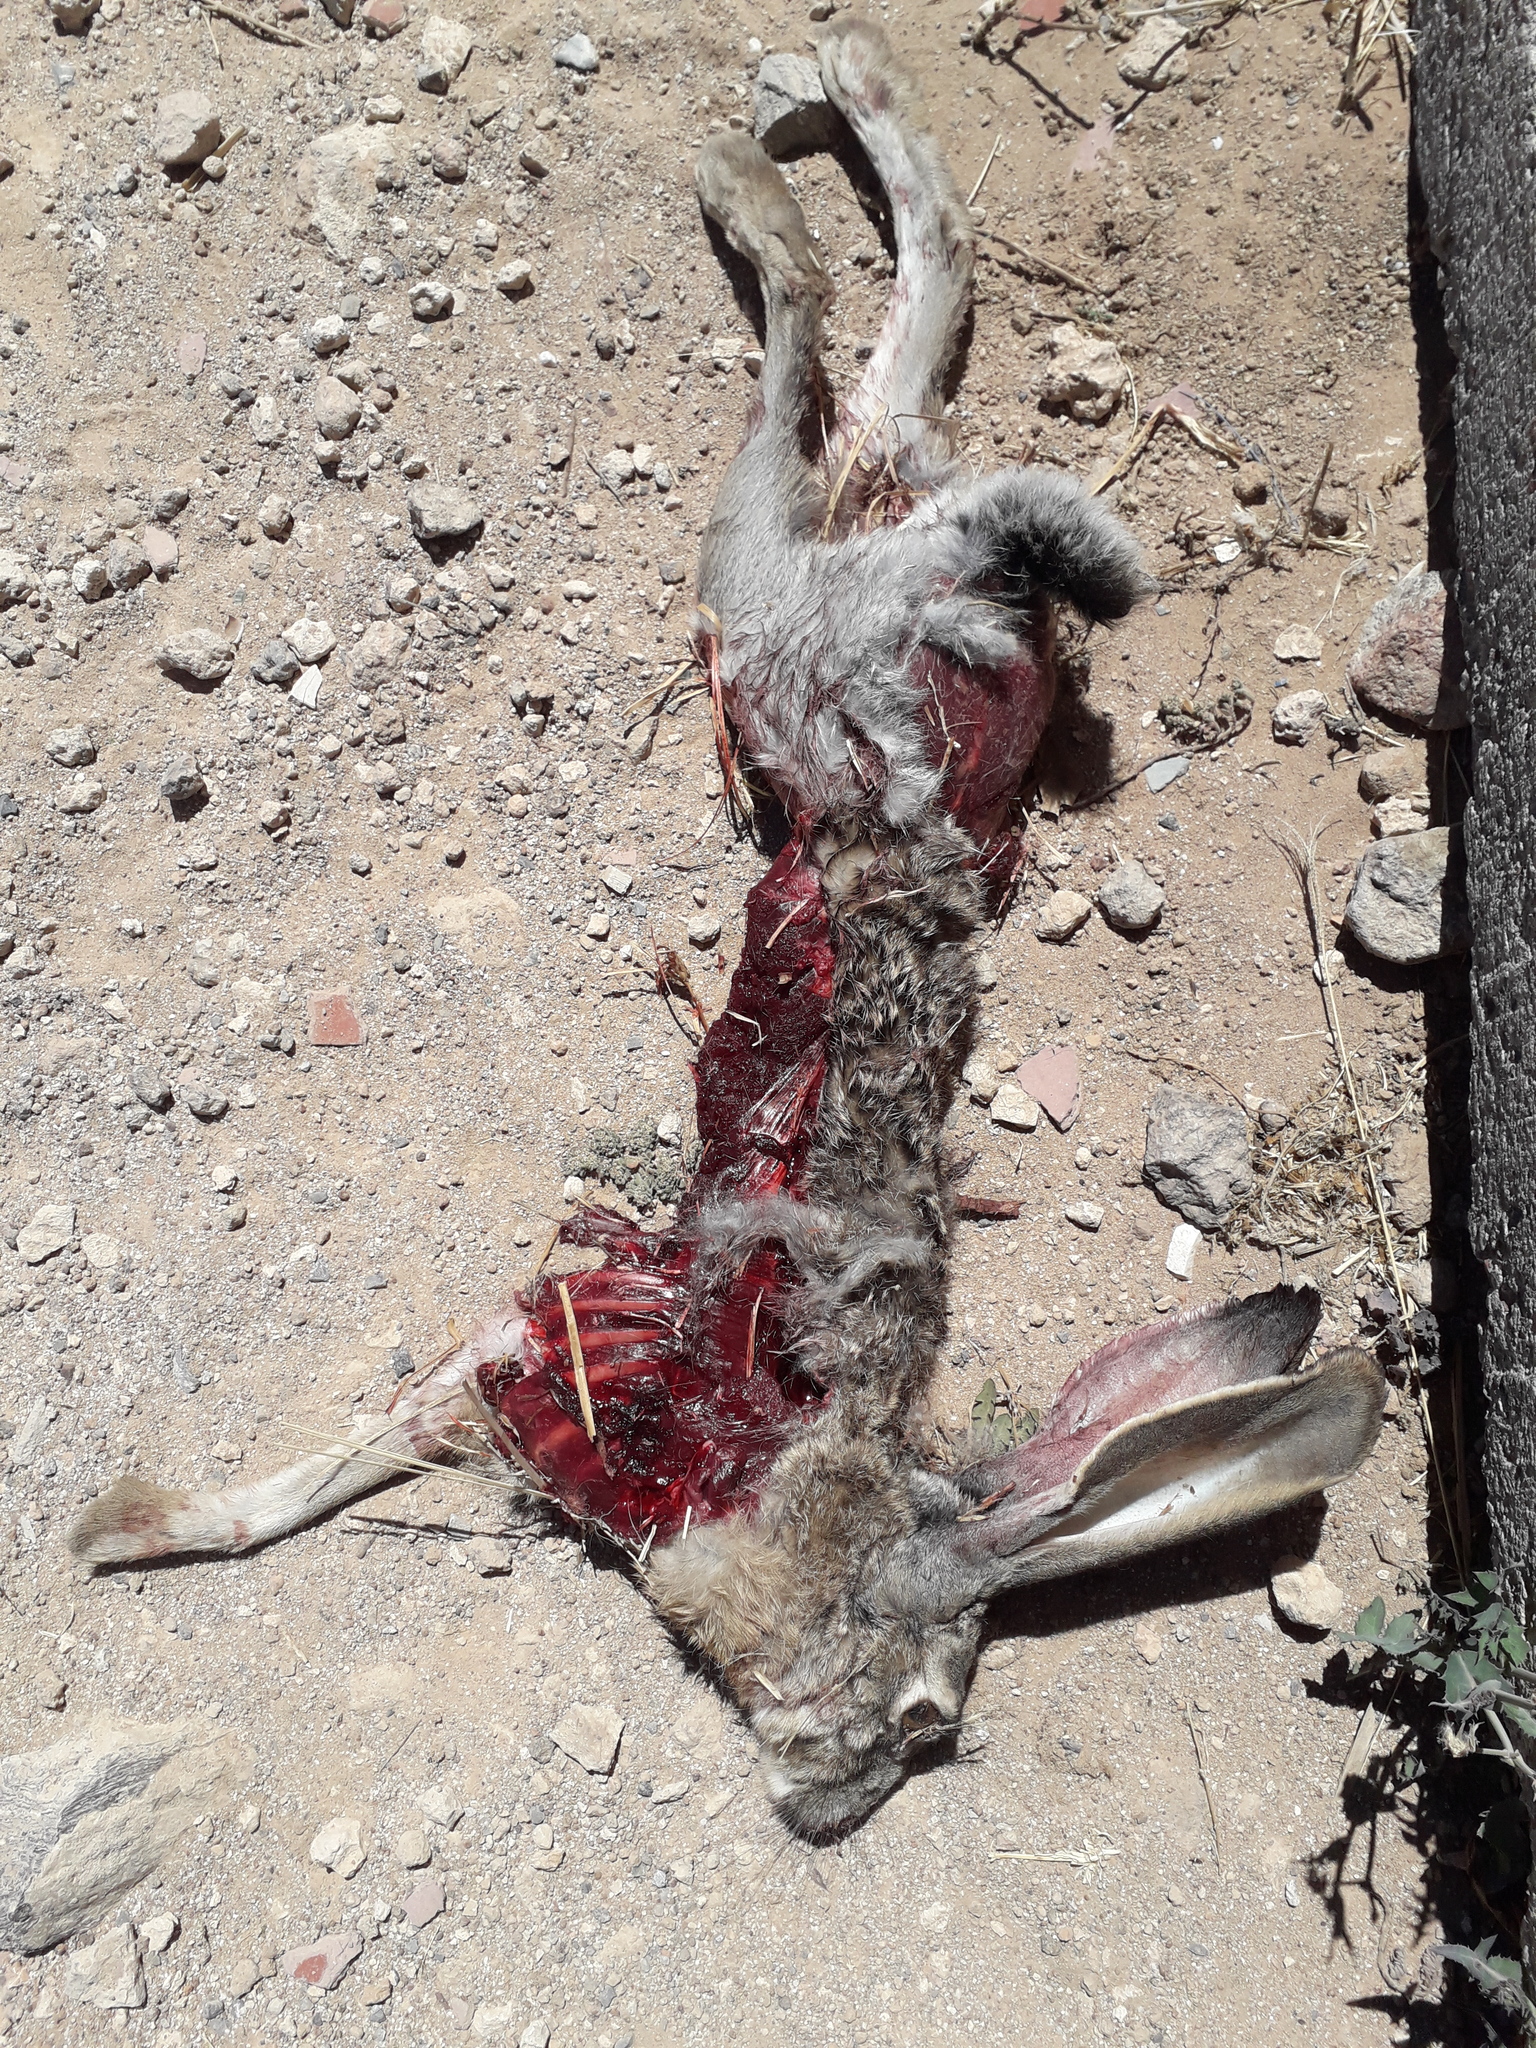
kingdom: Animalia
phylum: Chordata
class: Mammalia
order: Lagomorpha
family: Leporidae
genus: Lepus
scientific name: Lepus californicus
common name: Black-tailed jackrabbit
